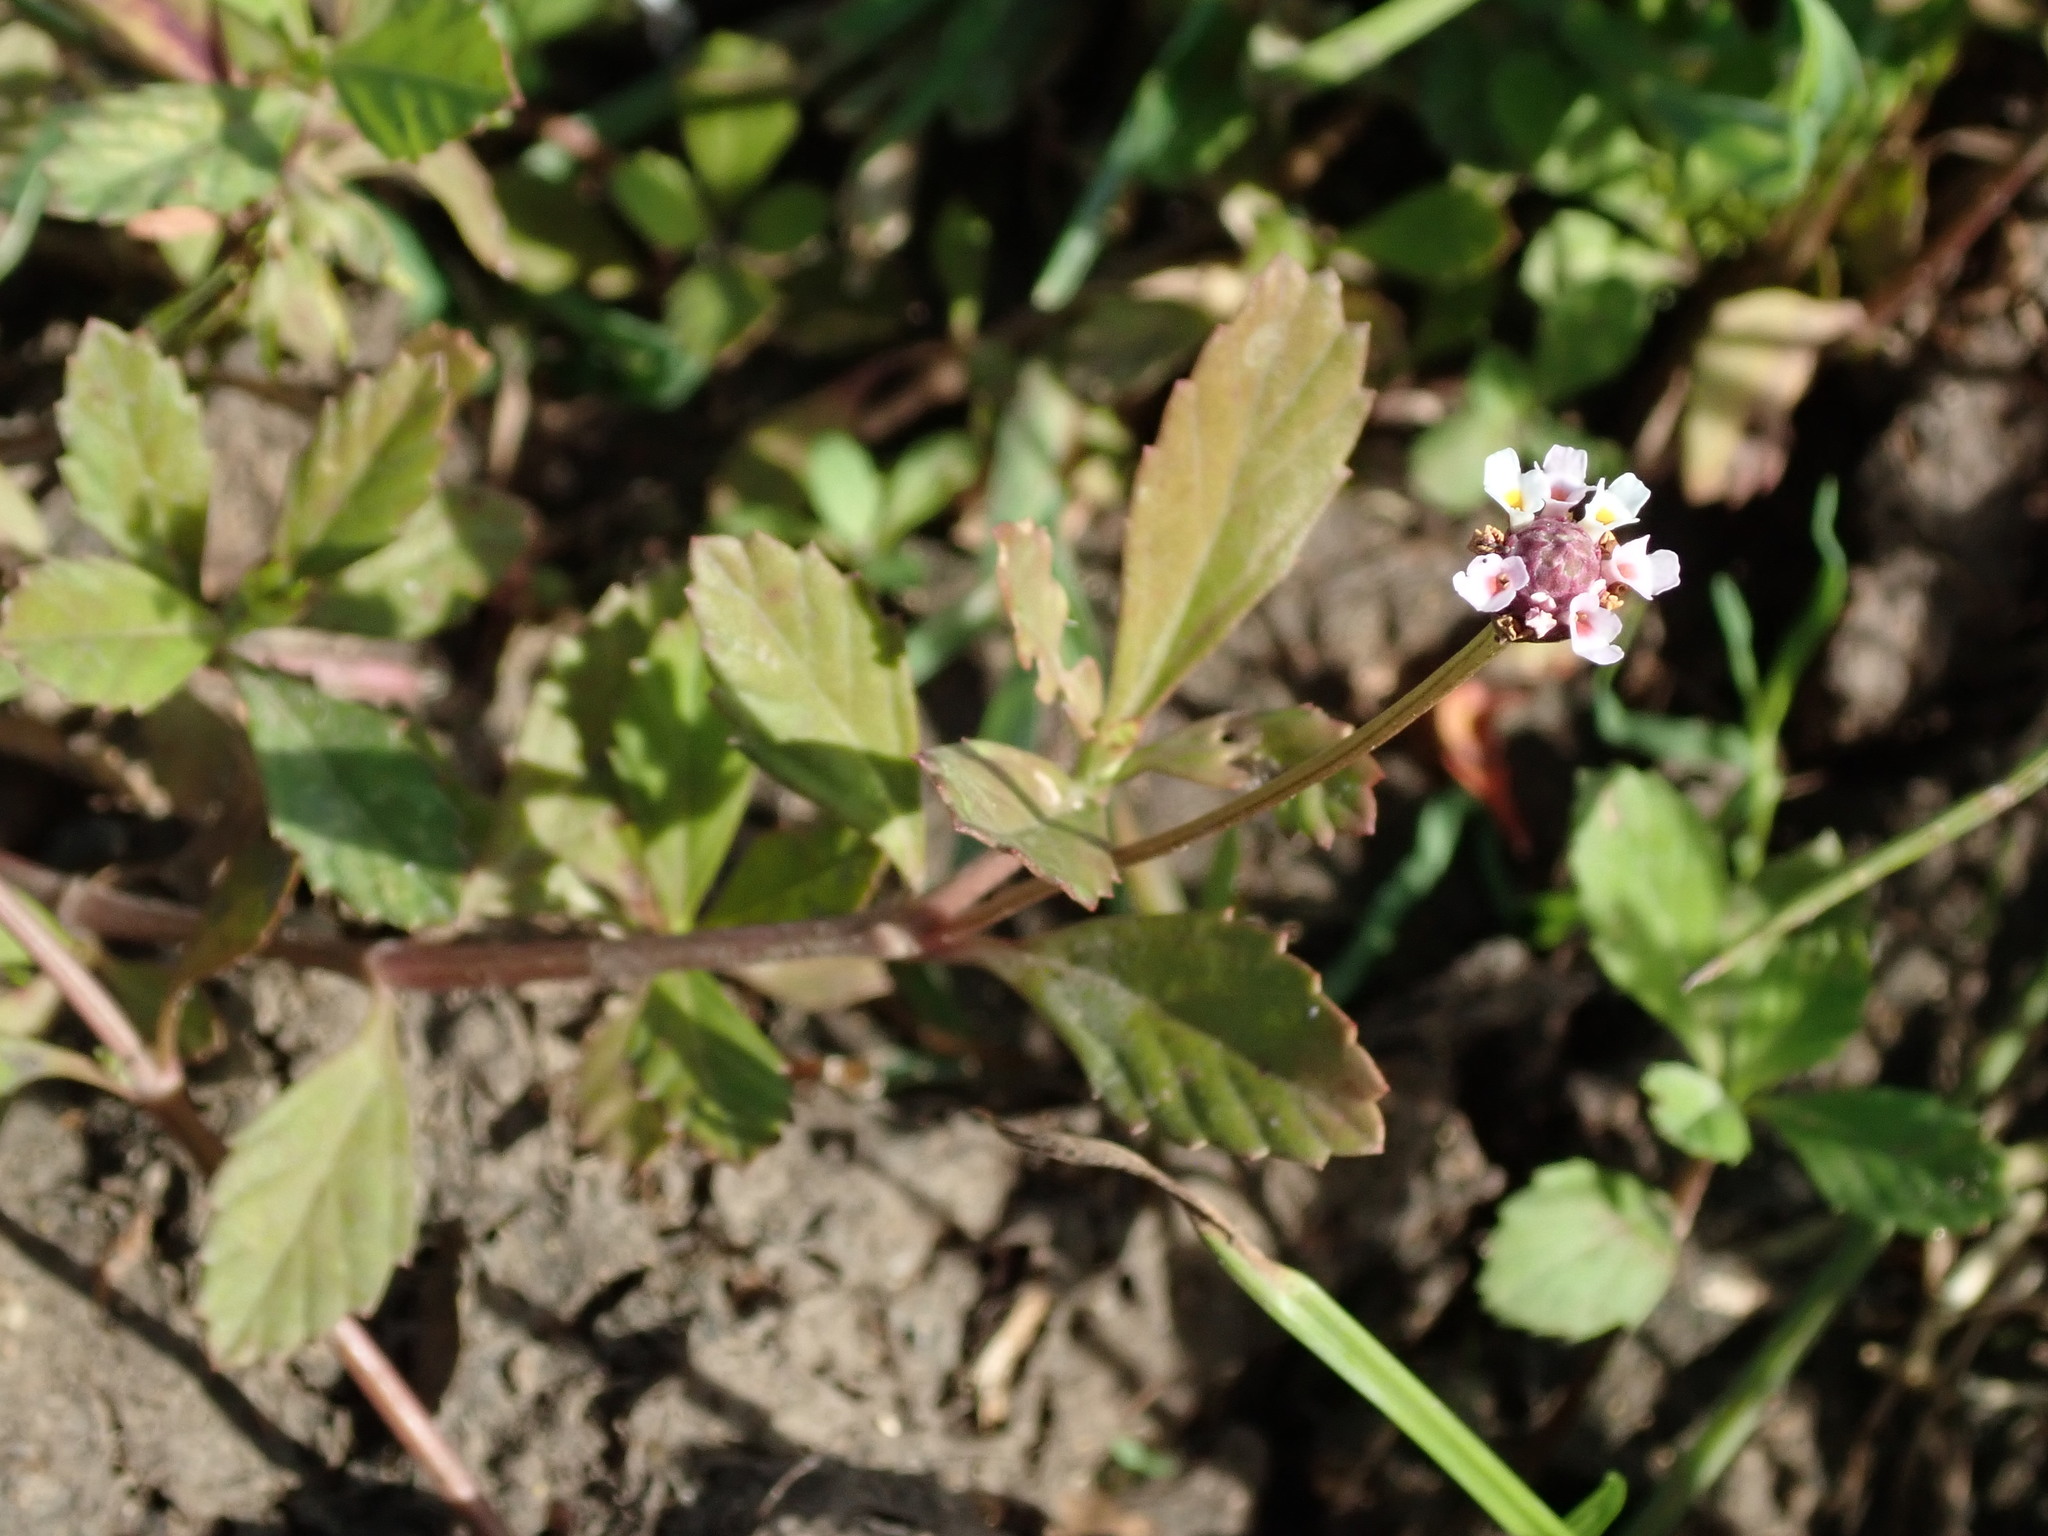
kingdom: Plantae
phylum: Tracheophyta
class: Magnoliopsida
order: Lamiales
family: Verbenaceae
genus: Phyla
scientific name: Phyla nodiflora
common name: Frogfruit
